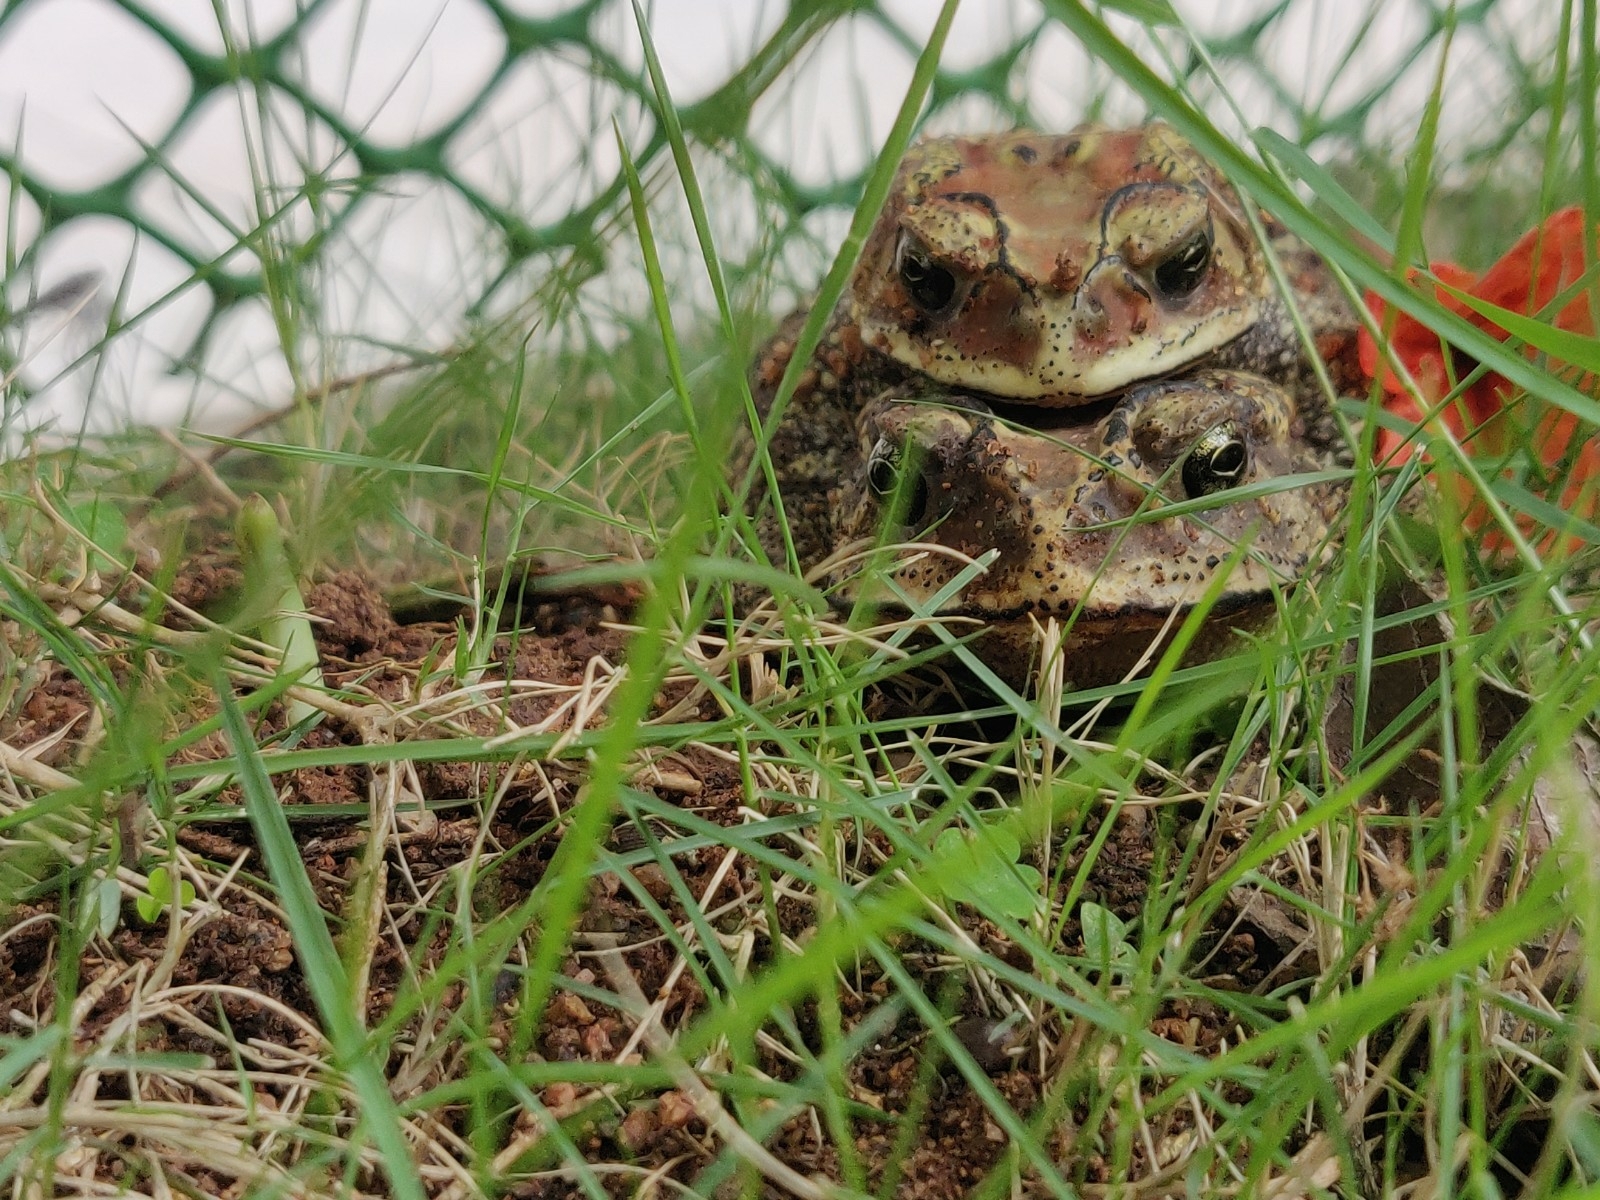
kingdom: Animalia
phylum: Chordata
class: Amphibia
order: Anura
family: Bufonidae
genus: Duttaphrynus
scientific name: Duttaphrynus melanostictus
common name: Common sunda toad
